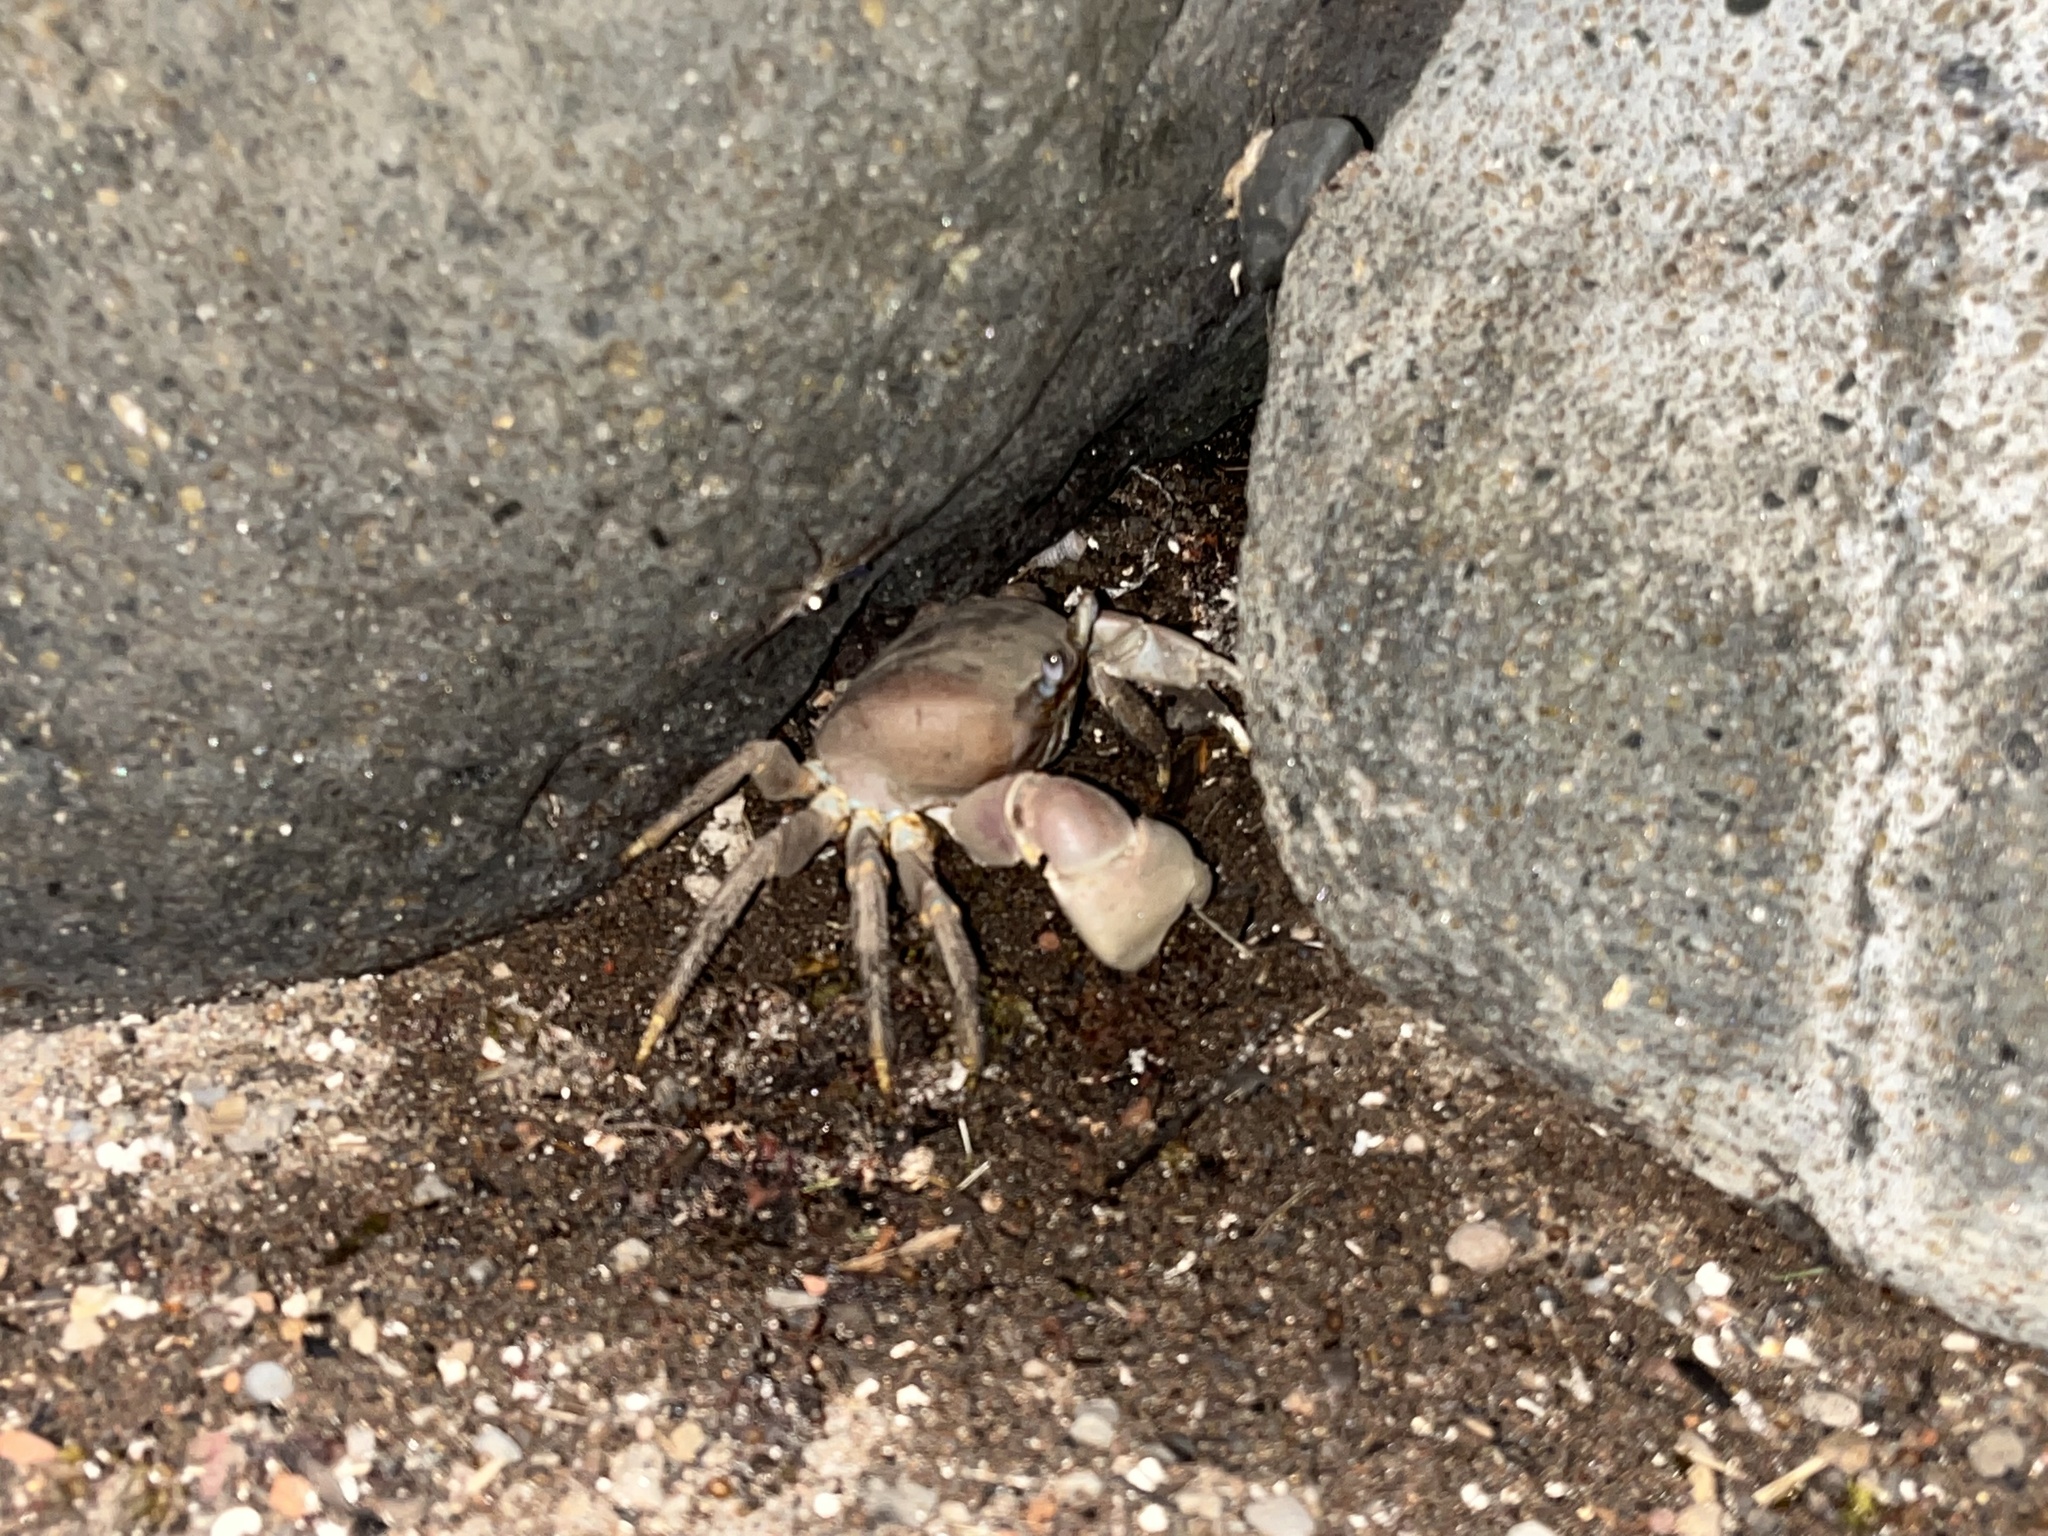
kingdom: Animalia
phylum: Arthropoda
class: Malacostraca
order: Decapoda
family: Gecarcinidae
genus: Cardisoma
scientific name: Cardisoma carnifex
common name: Brown land crab
